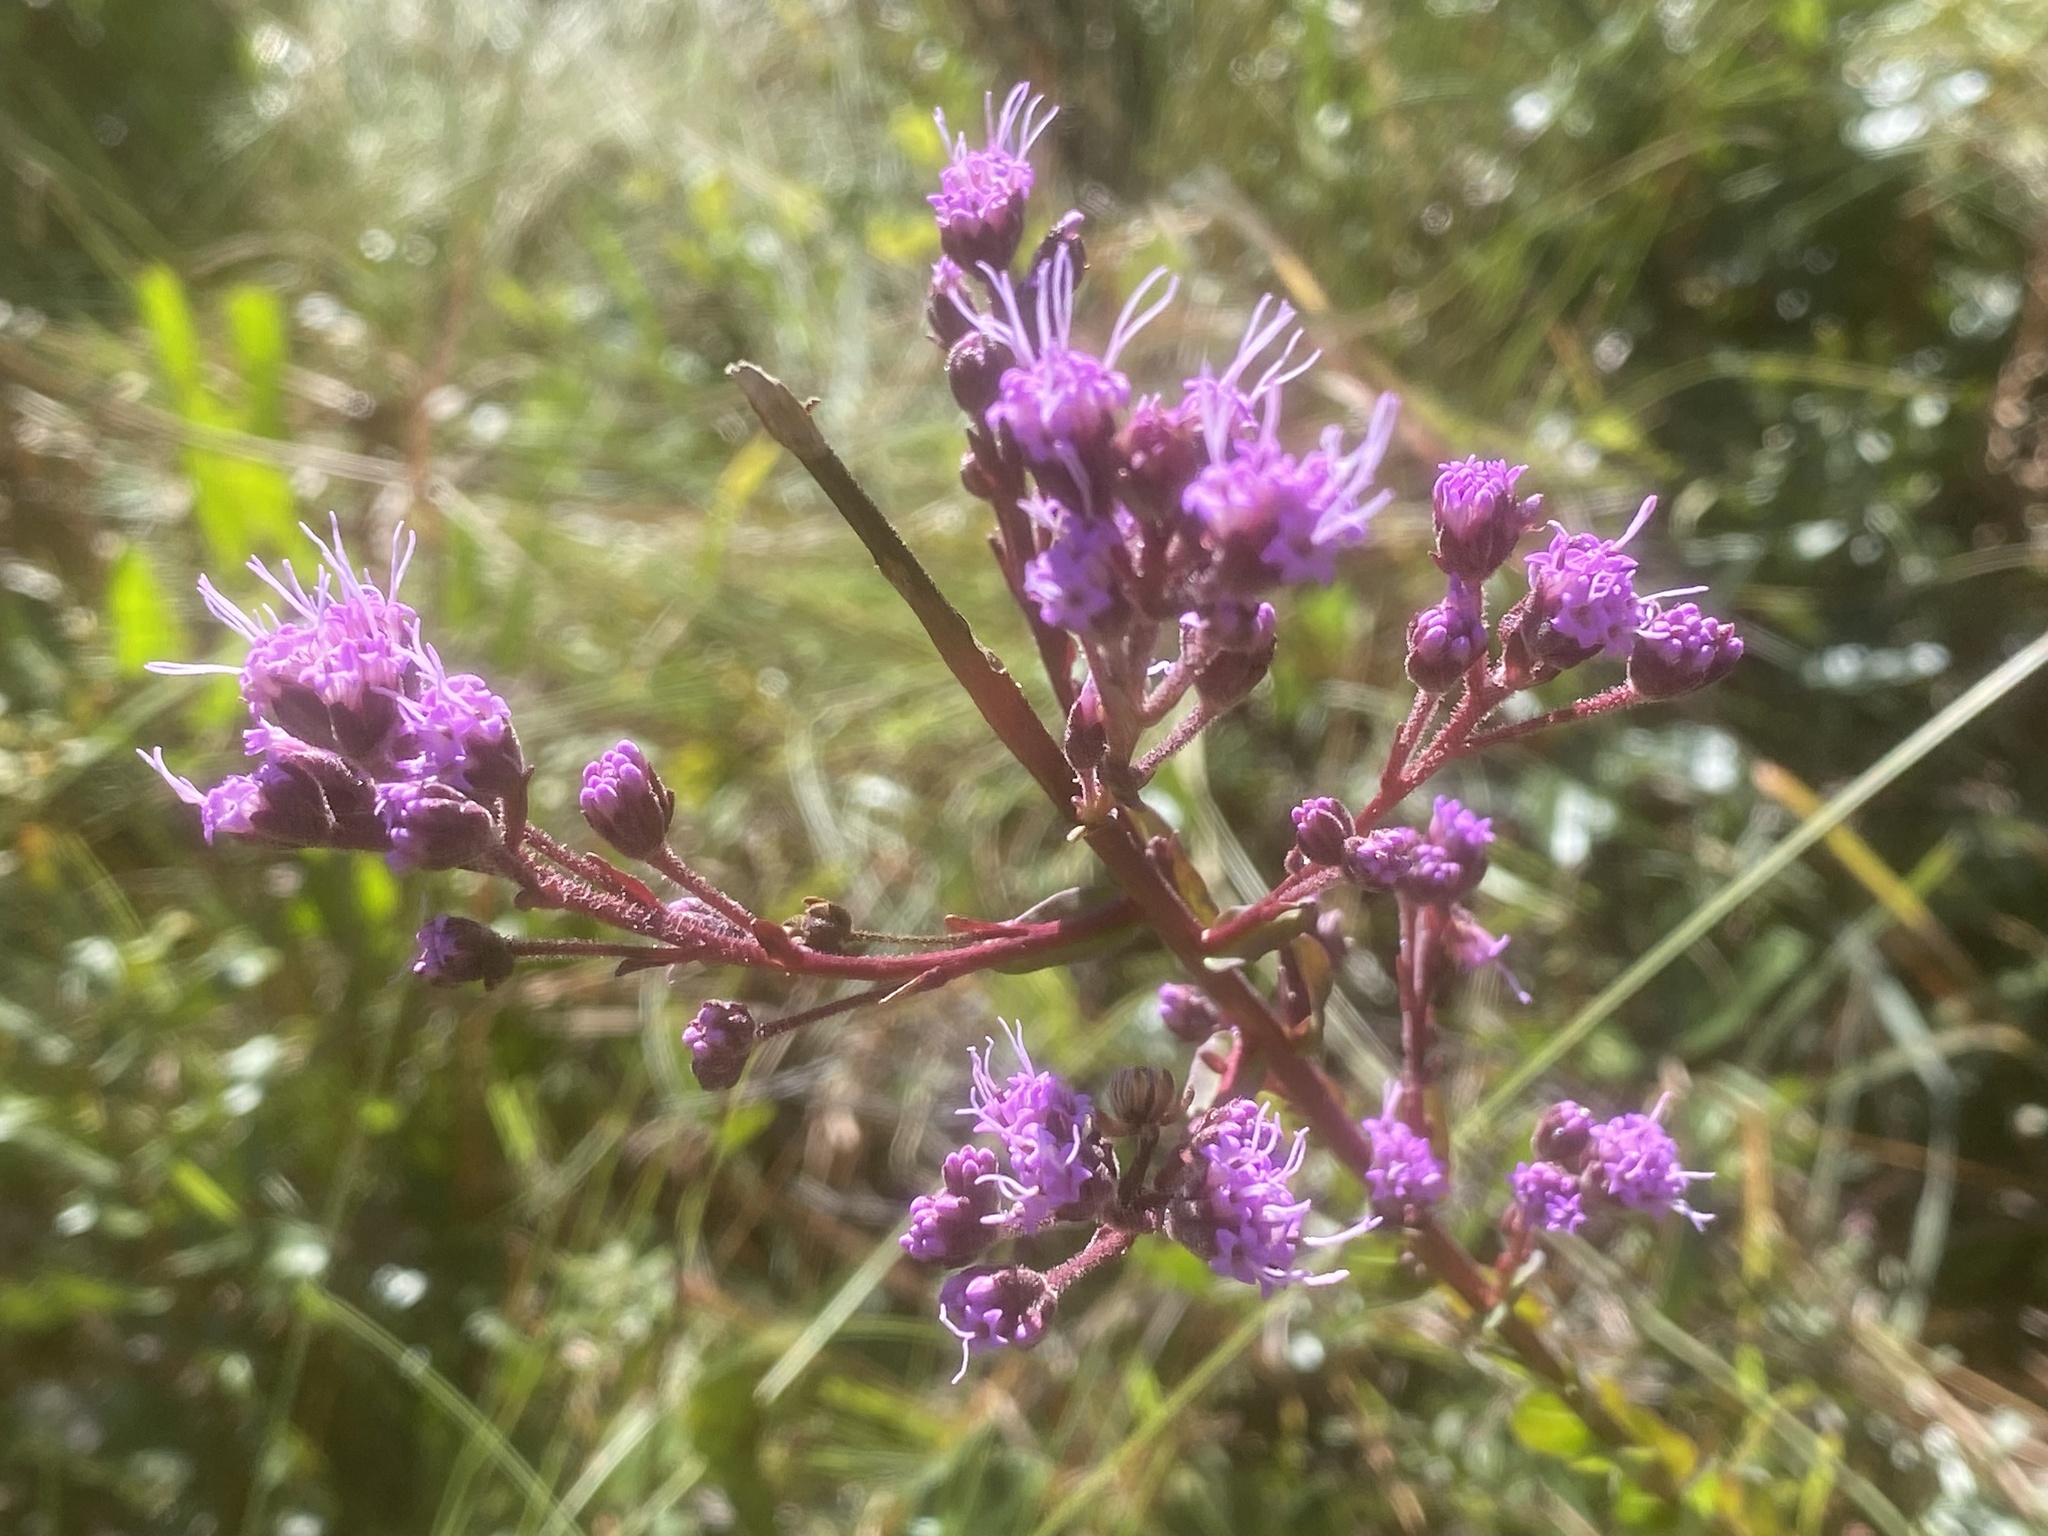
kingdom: Plantae
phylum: Tracheophyta
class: Magnoliopsida
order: Asterales
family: Asteraceae
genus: Carphephorus
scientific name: Carphephorus odoratissimus
